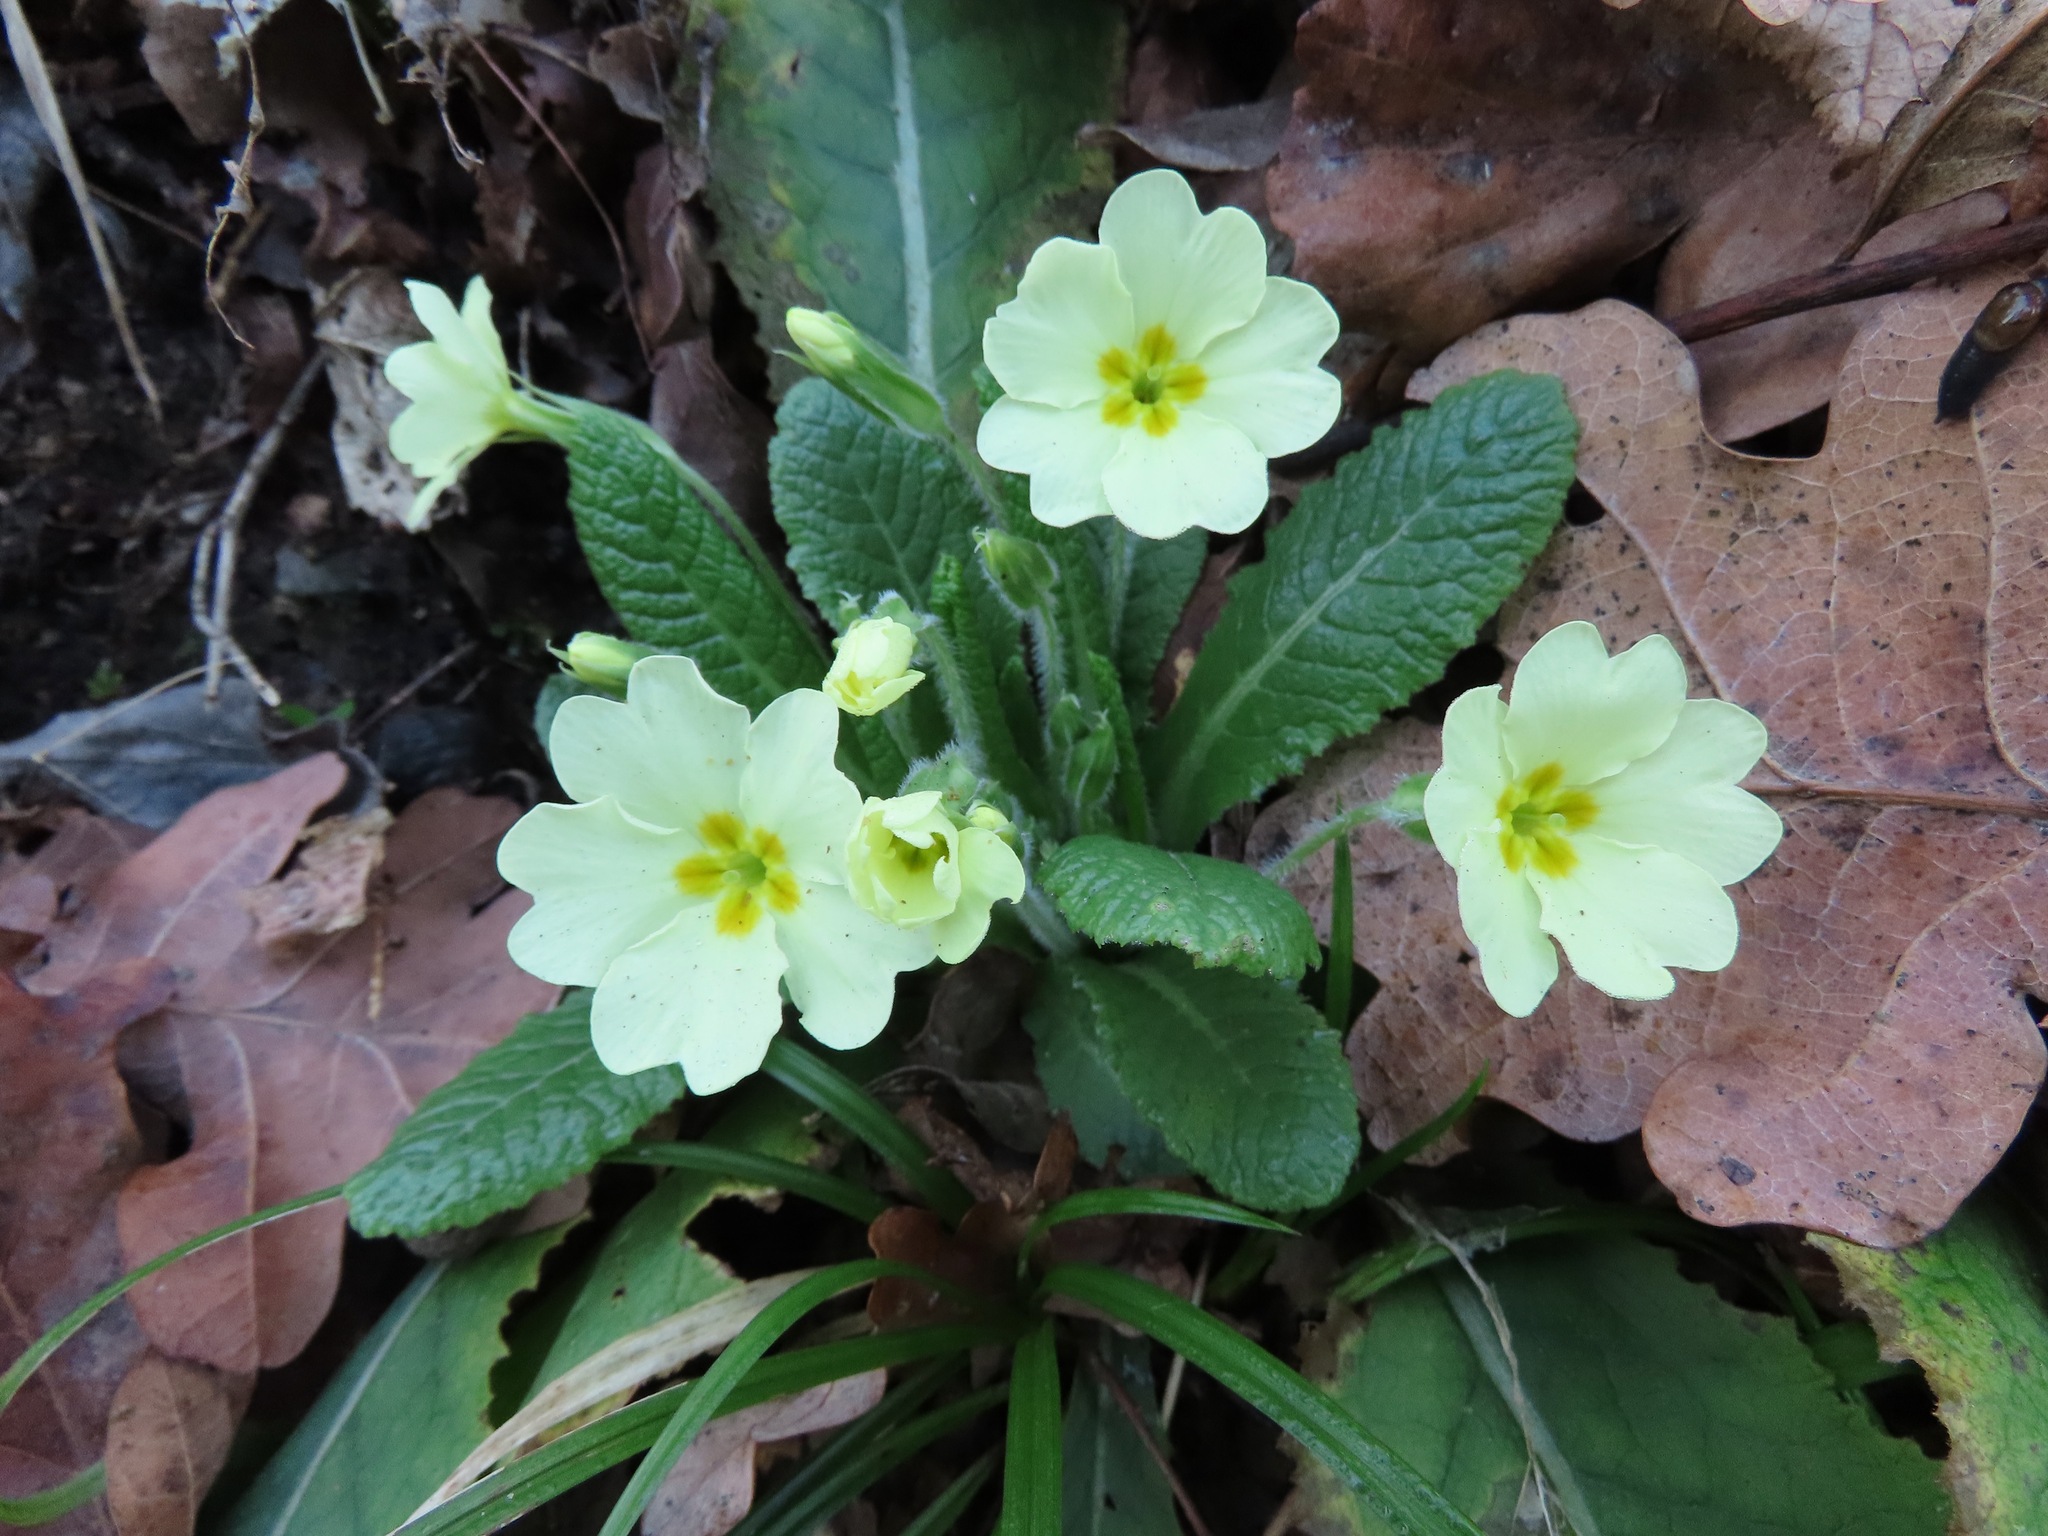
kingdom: Plantae
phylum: Tracheophyta
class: Magnoliopsida
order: Ericales
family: Primulaceae
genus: Primula
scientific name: Primula vulgaris
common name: Primrose
